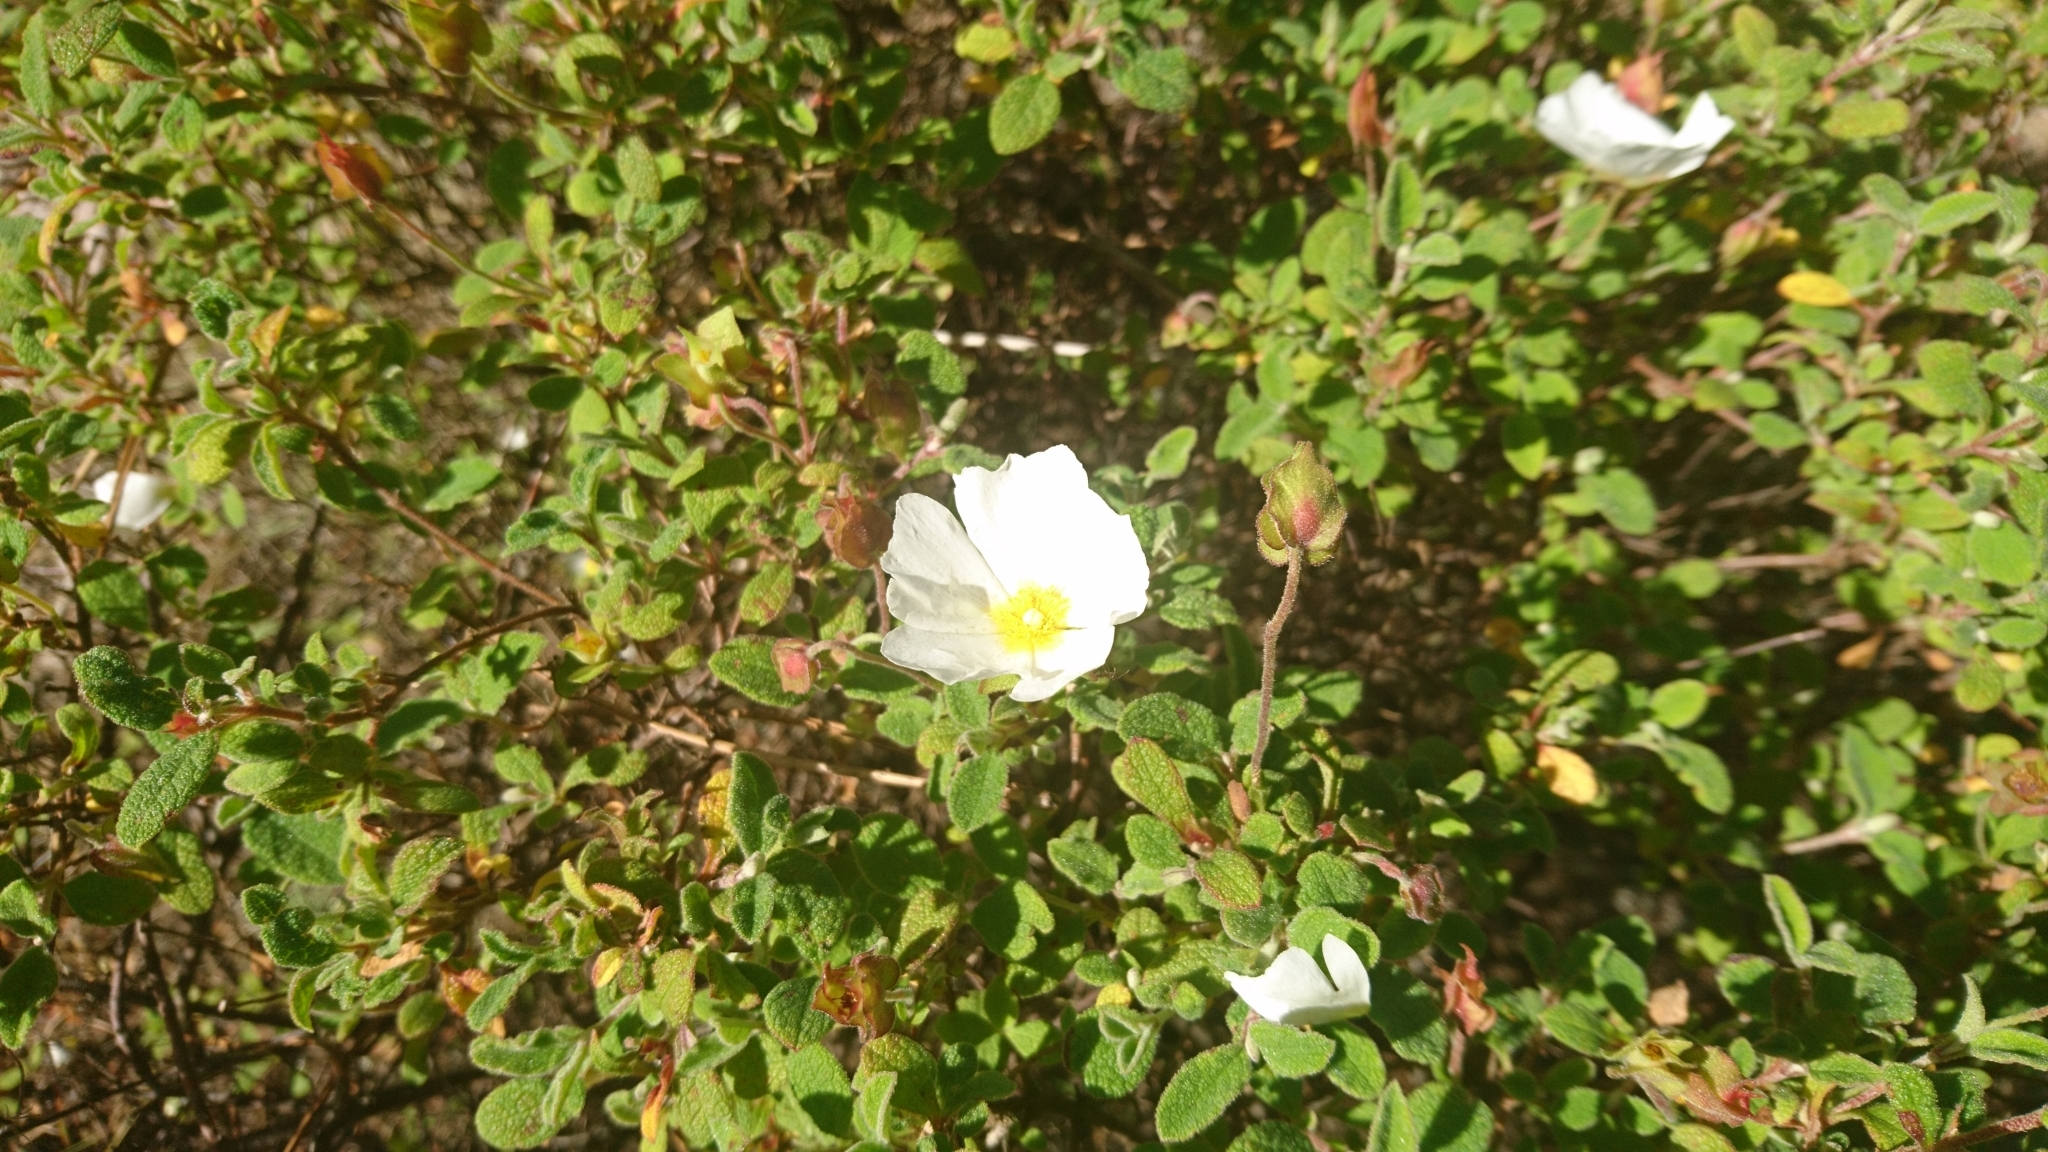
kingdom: Plantae
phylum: Tracheophyta
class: Magnoliopsida
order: Malvales
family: Cistaceae
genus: Cistus
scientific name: Cistus salviifolius
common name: Salvia cistus
